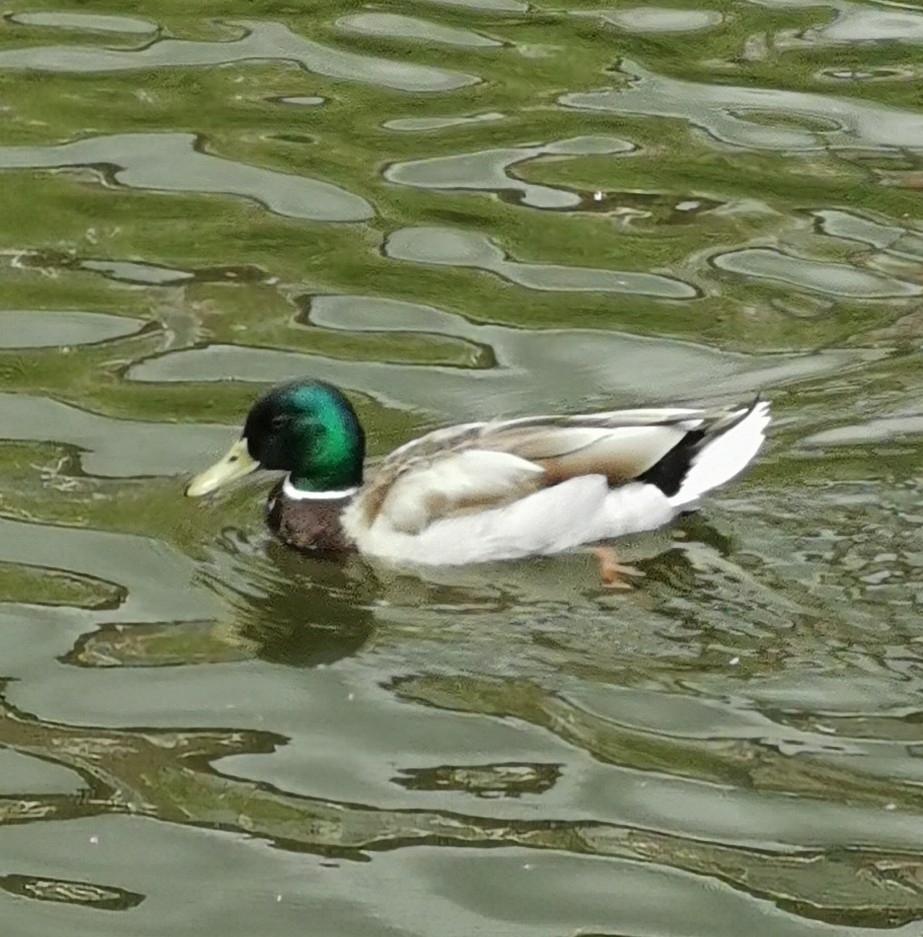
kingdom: Animalia
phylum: Chordata
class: Aves
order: Anseriformes
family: Anatidae
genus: Anas
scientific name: Anas platyrhynchos
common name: Mallard
